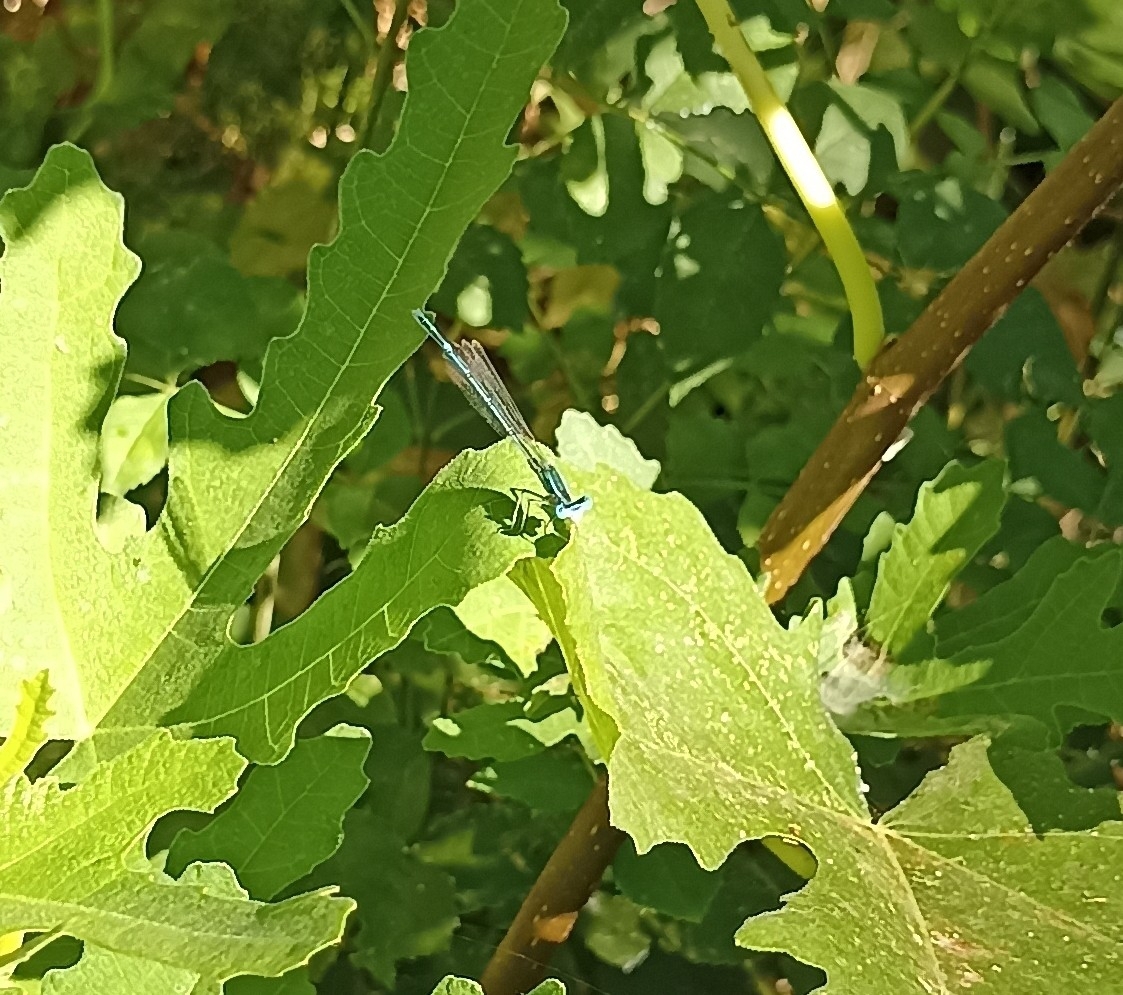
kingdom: Animalia
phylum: Arthropoda
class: Insecta
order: Odonata
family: Platycnemididae
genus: Platycnemis
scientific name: Platycnemis pennipes
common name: White-legged damselfly
